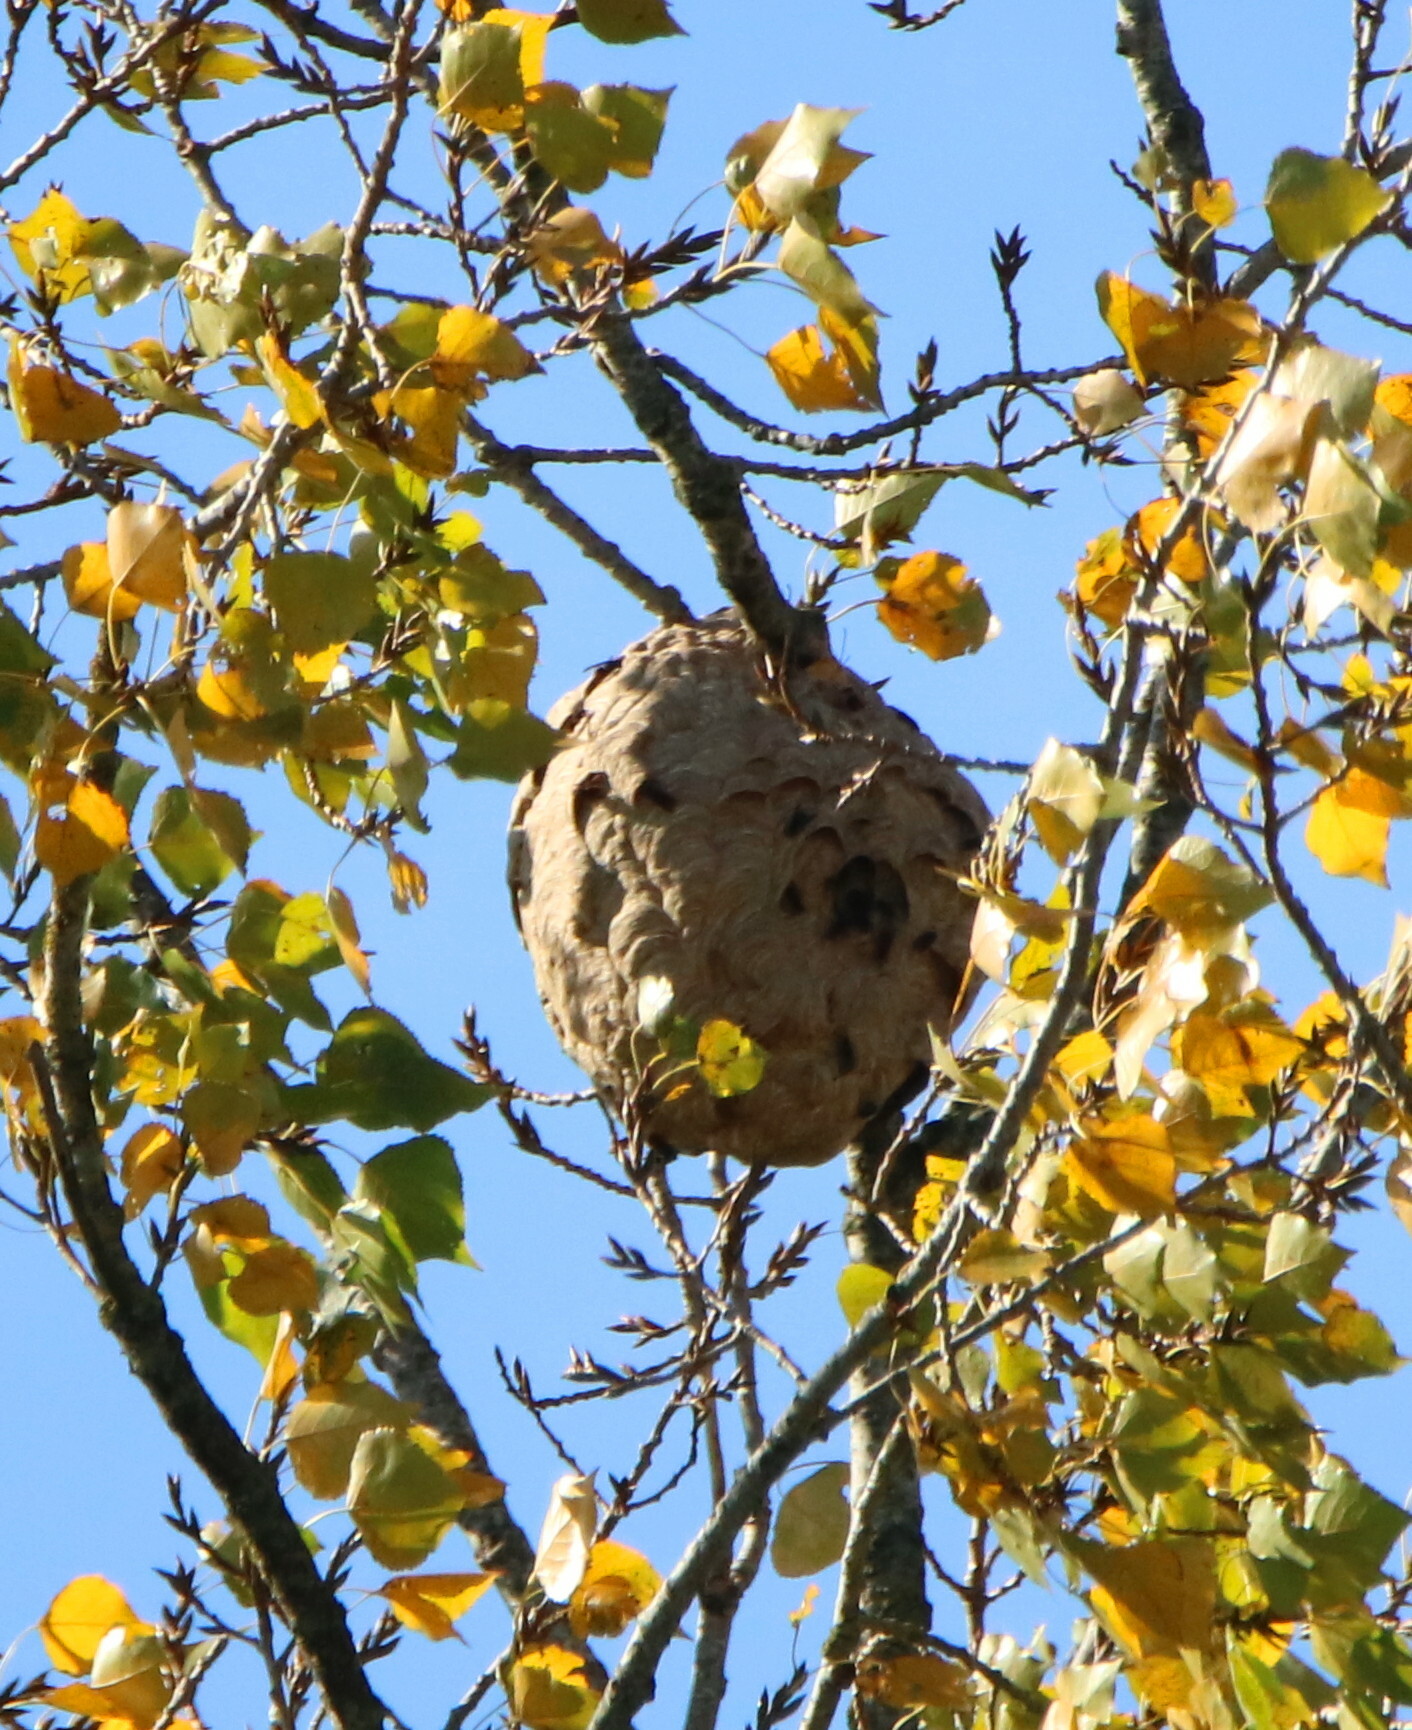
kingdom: Animalia
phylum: Arthropoda
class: Insecta
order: Hymenoptera
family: Vespidae
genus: Vespa
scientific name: Vespa velutina
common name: Asian hornet
